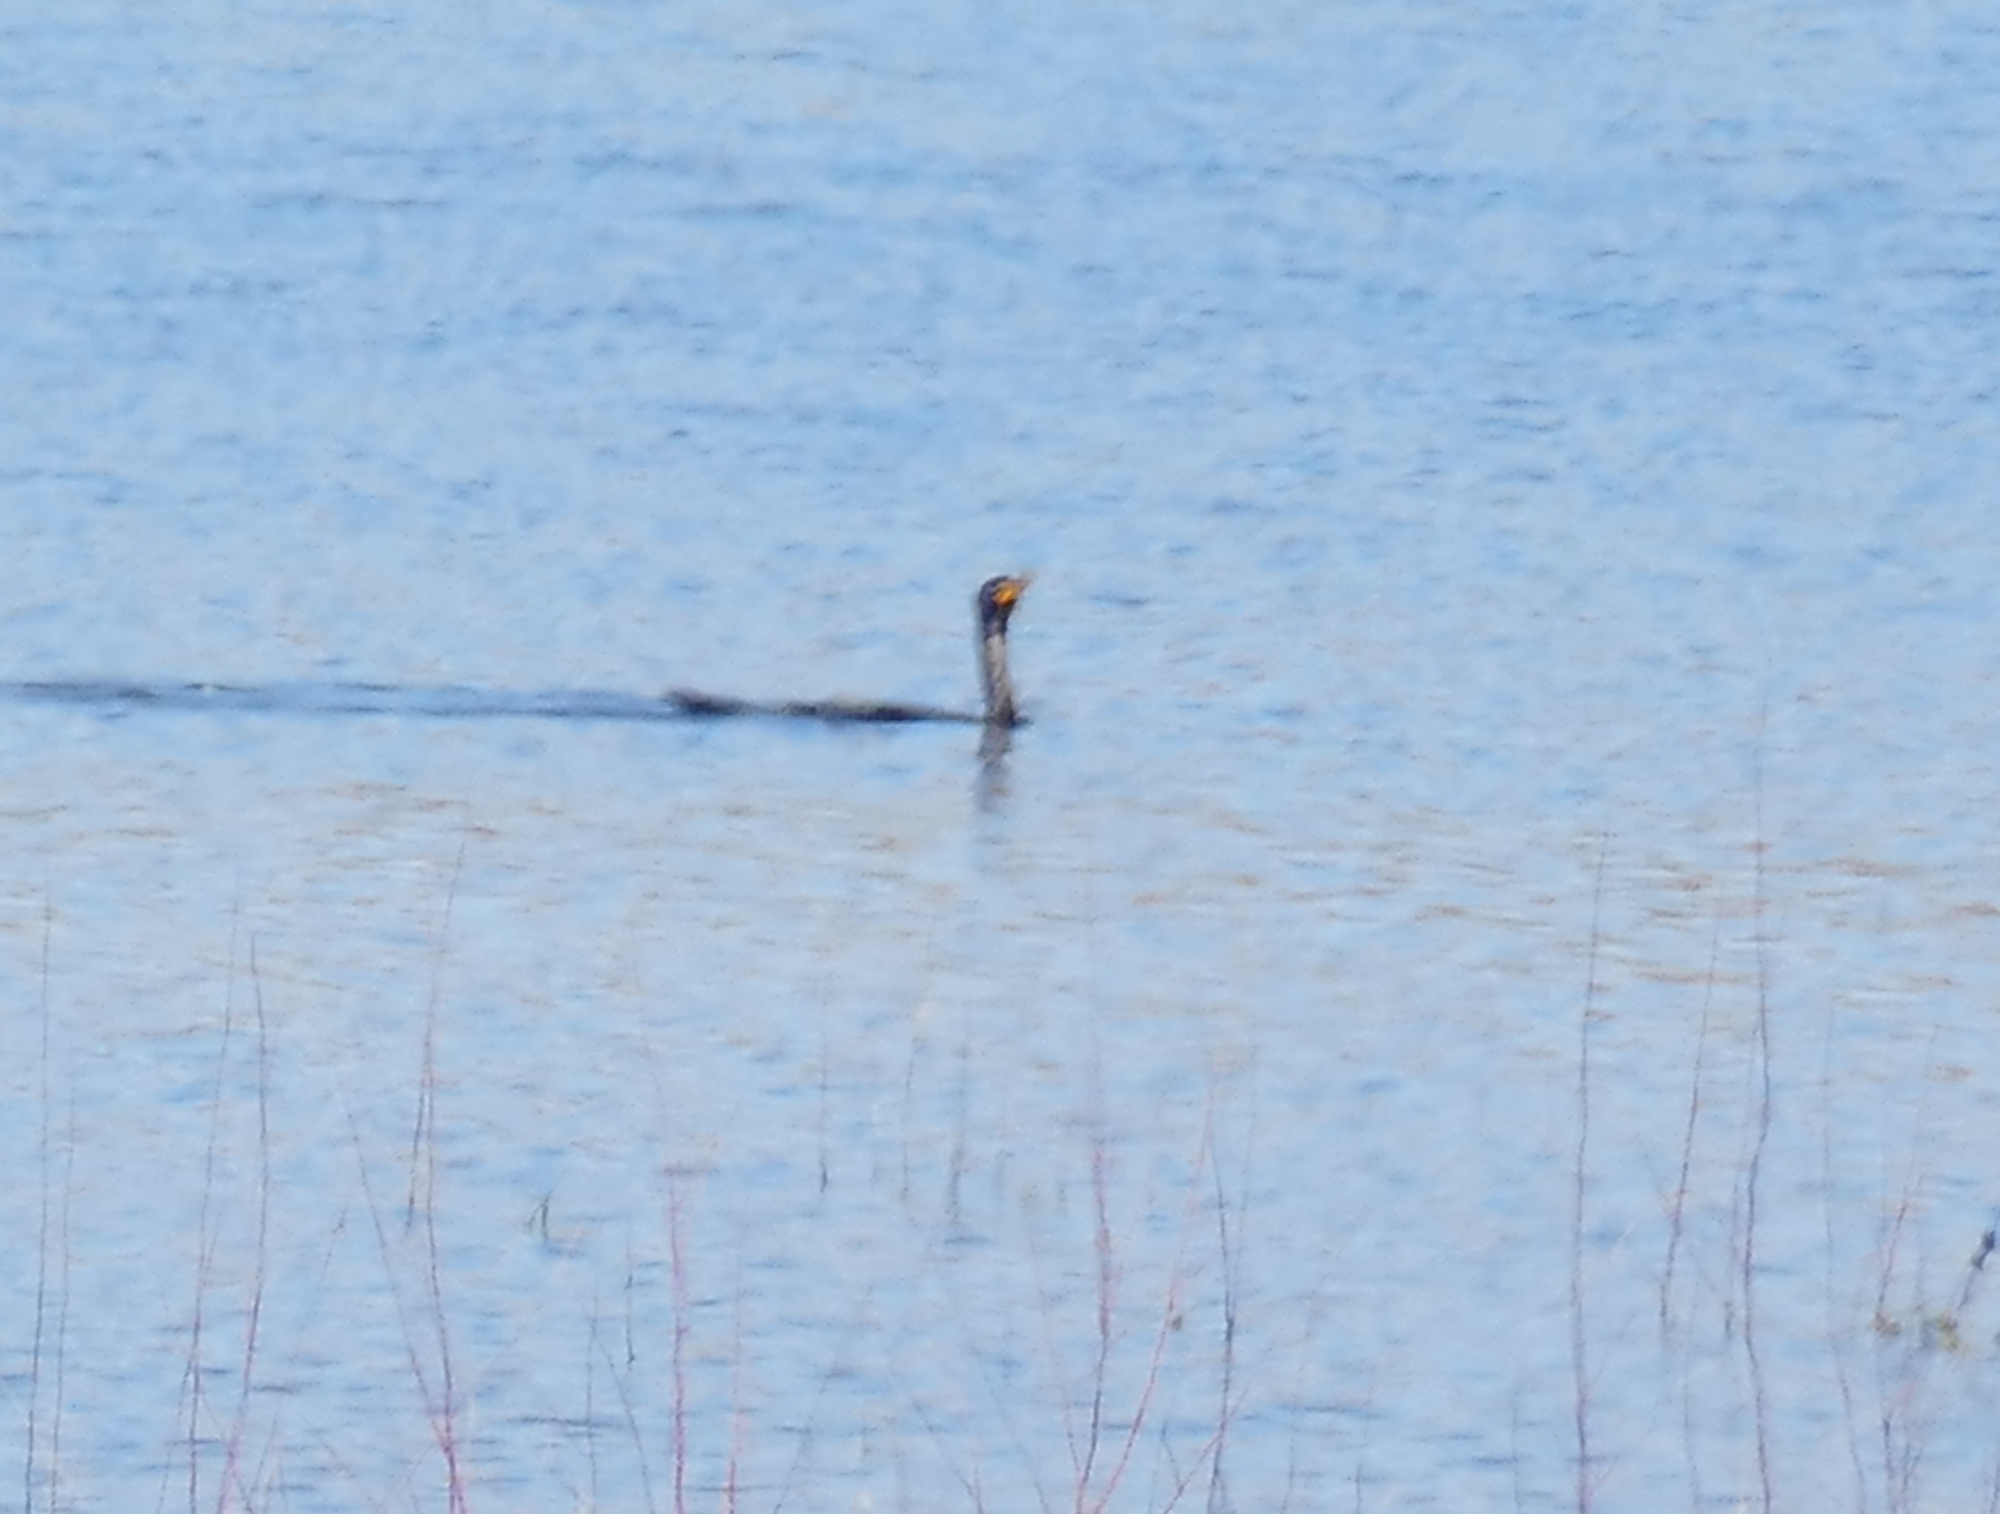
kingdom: Animalia
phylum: Chordata
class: Aves
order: Suliformes
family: Phalacrocoracidae
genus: Phalacrocorax
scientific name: Phalacrocorax auritus
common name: Double-crested cormorant
